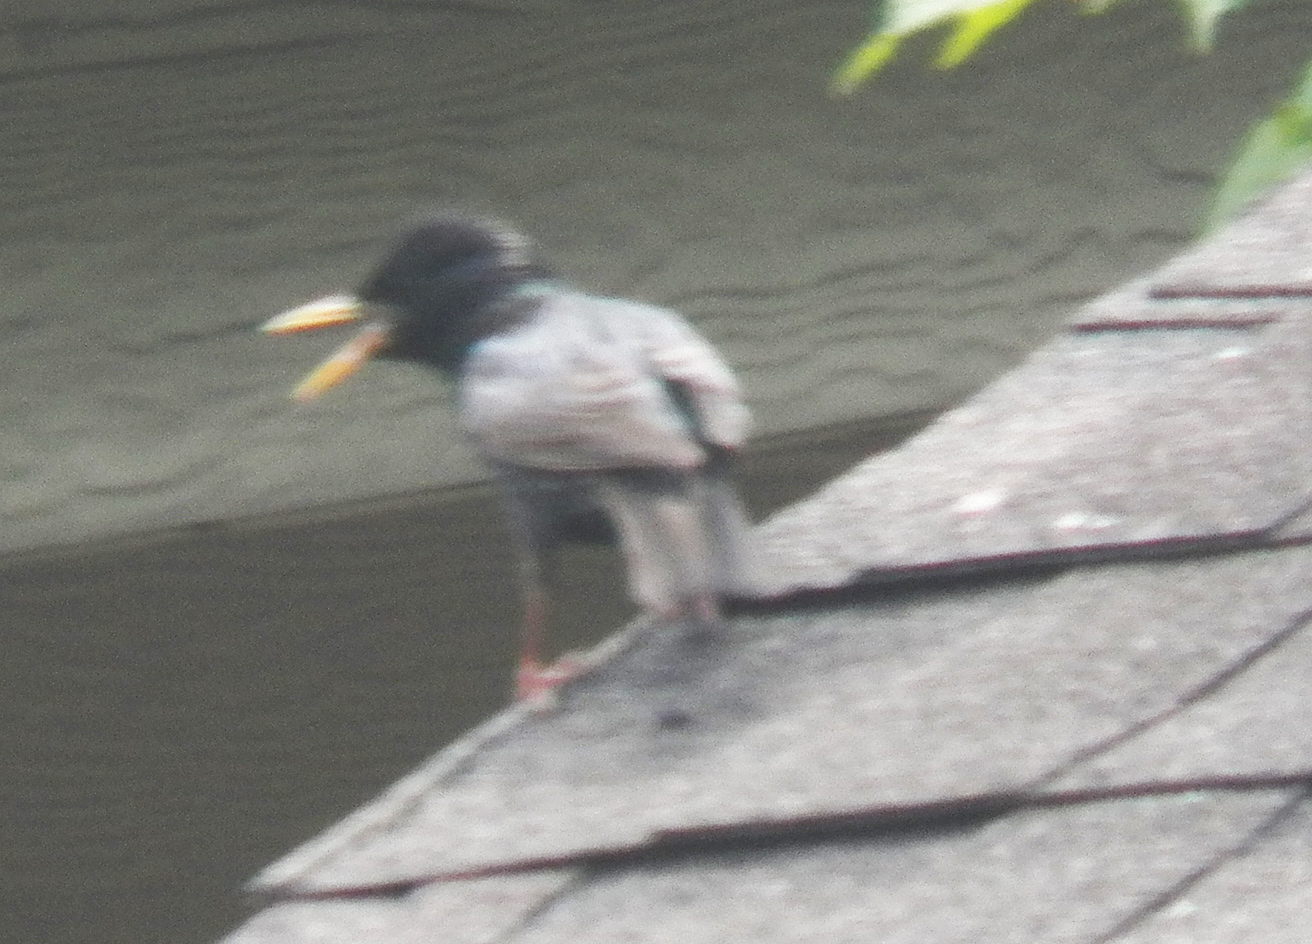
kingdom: Animalia
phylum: Chordata
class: Aves
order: Passeriformes
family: Sturnidae
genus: Sturnus
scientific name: Sturnus vulgaris
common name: Common starling
